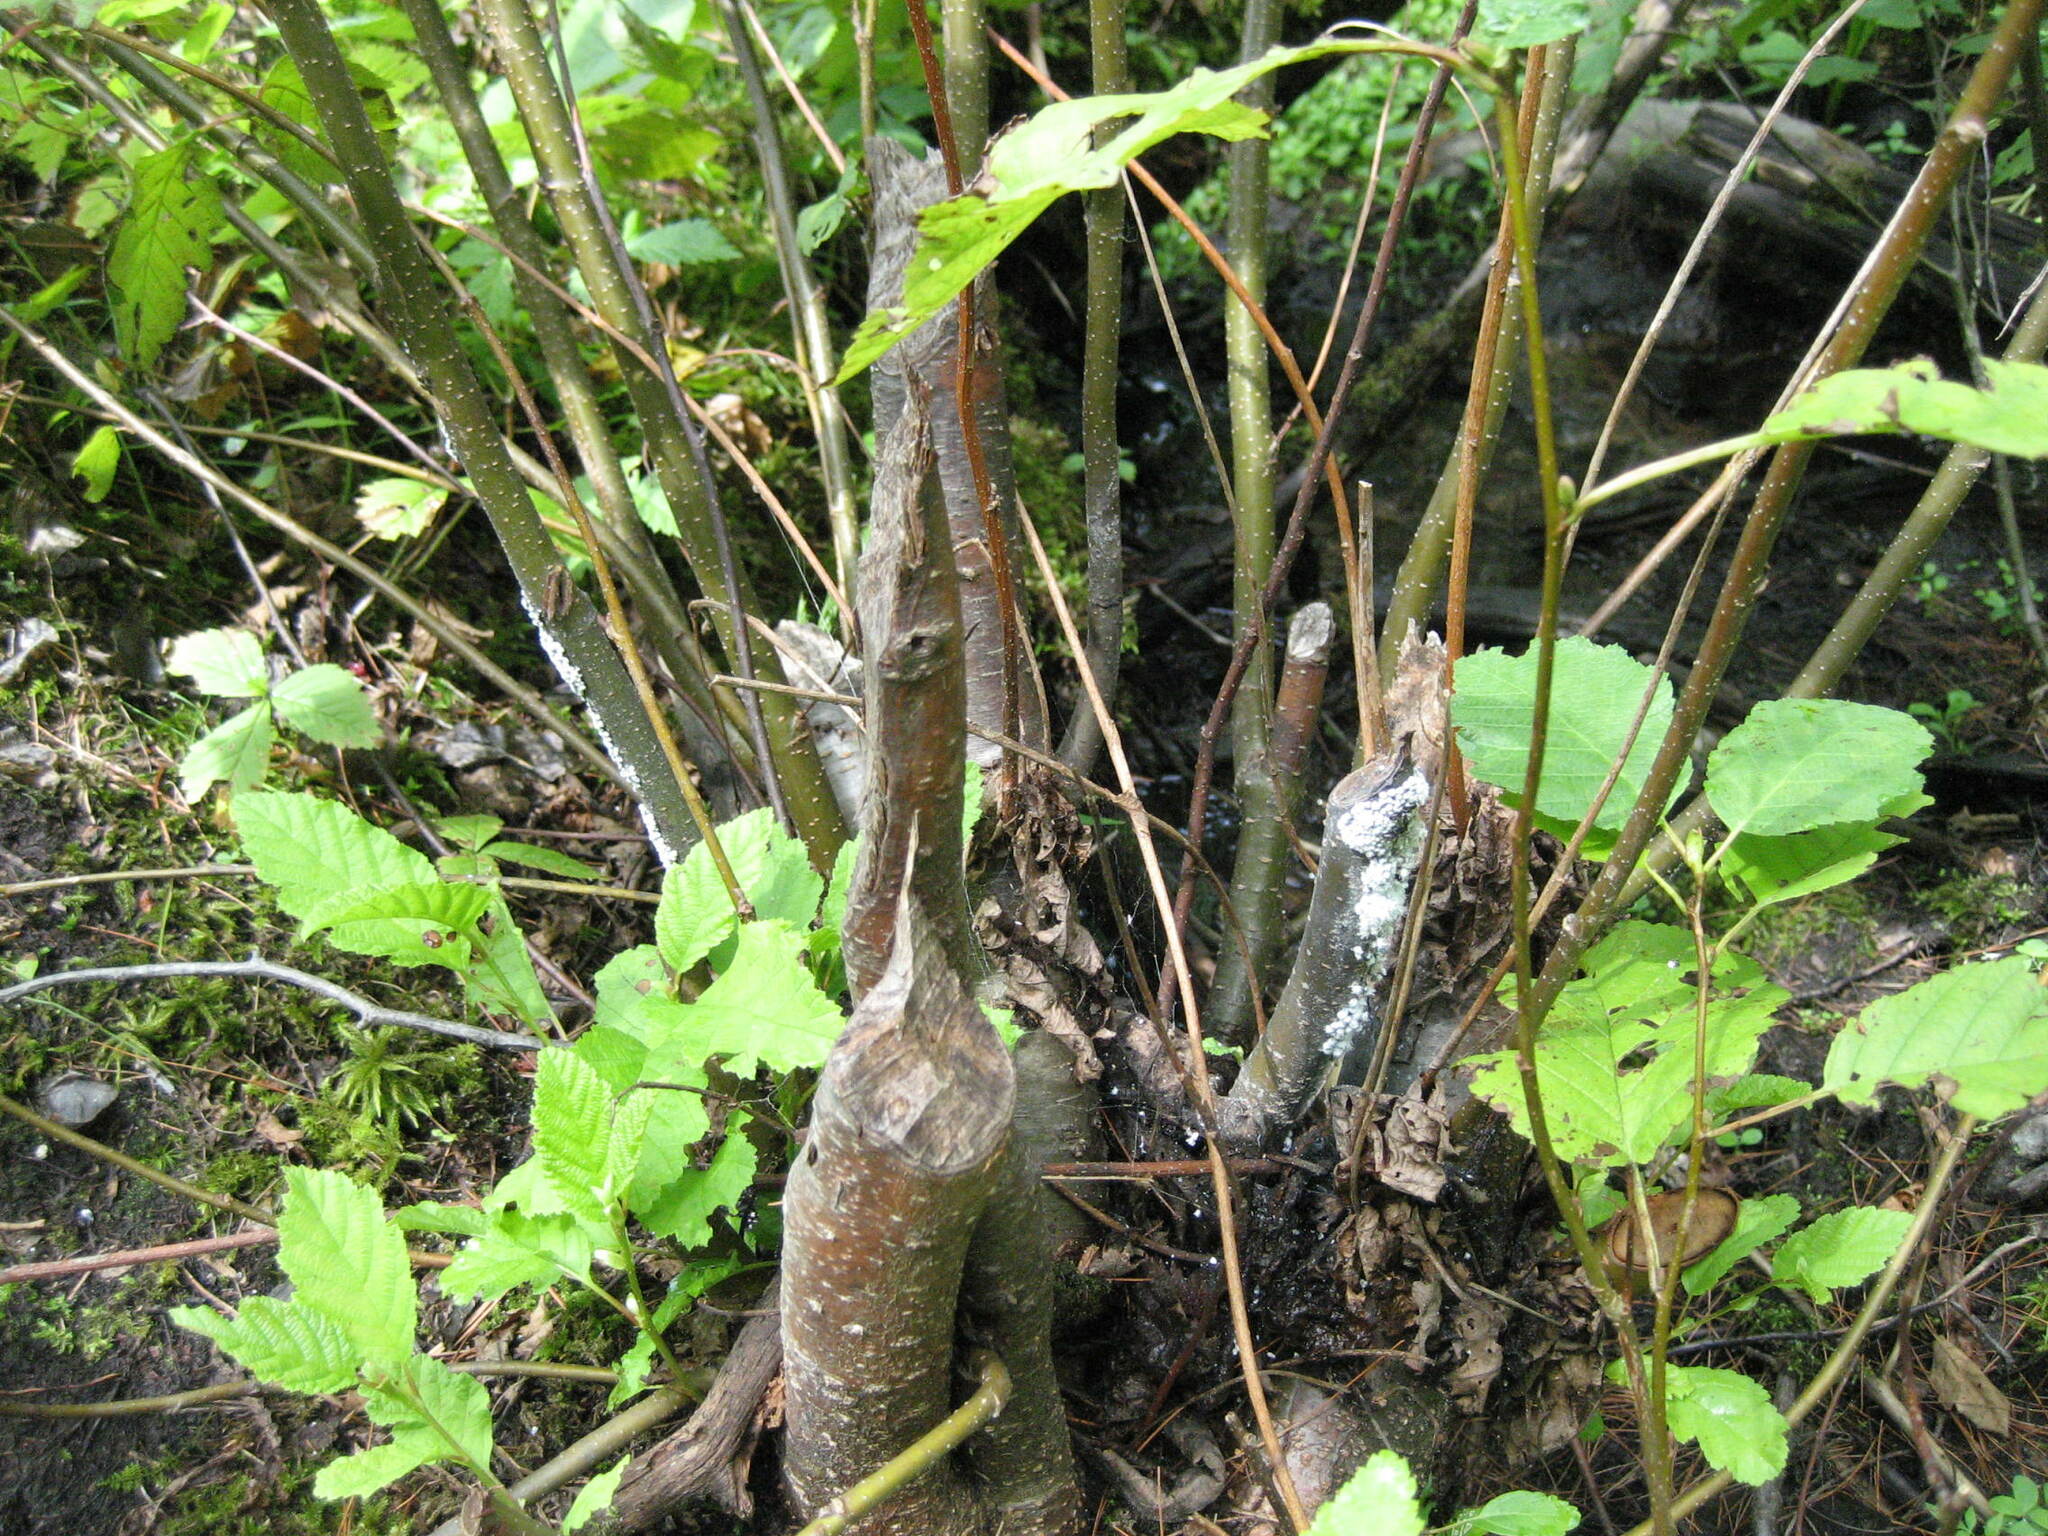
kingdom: Plantae
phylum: Tracheophyta
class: Magnoliopsida
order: Fagales
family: Betulaceae
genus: Alnus
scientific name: Alnus incana
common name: Grey alder
